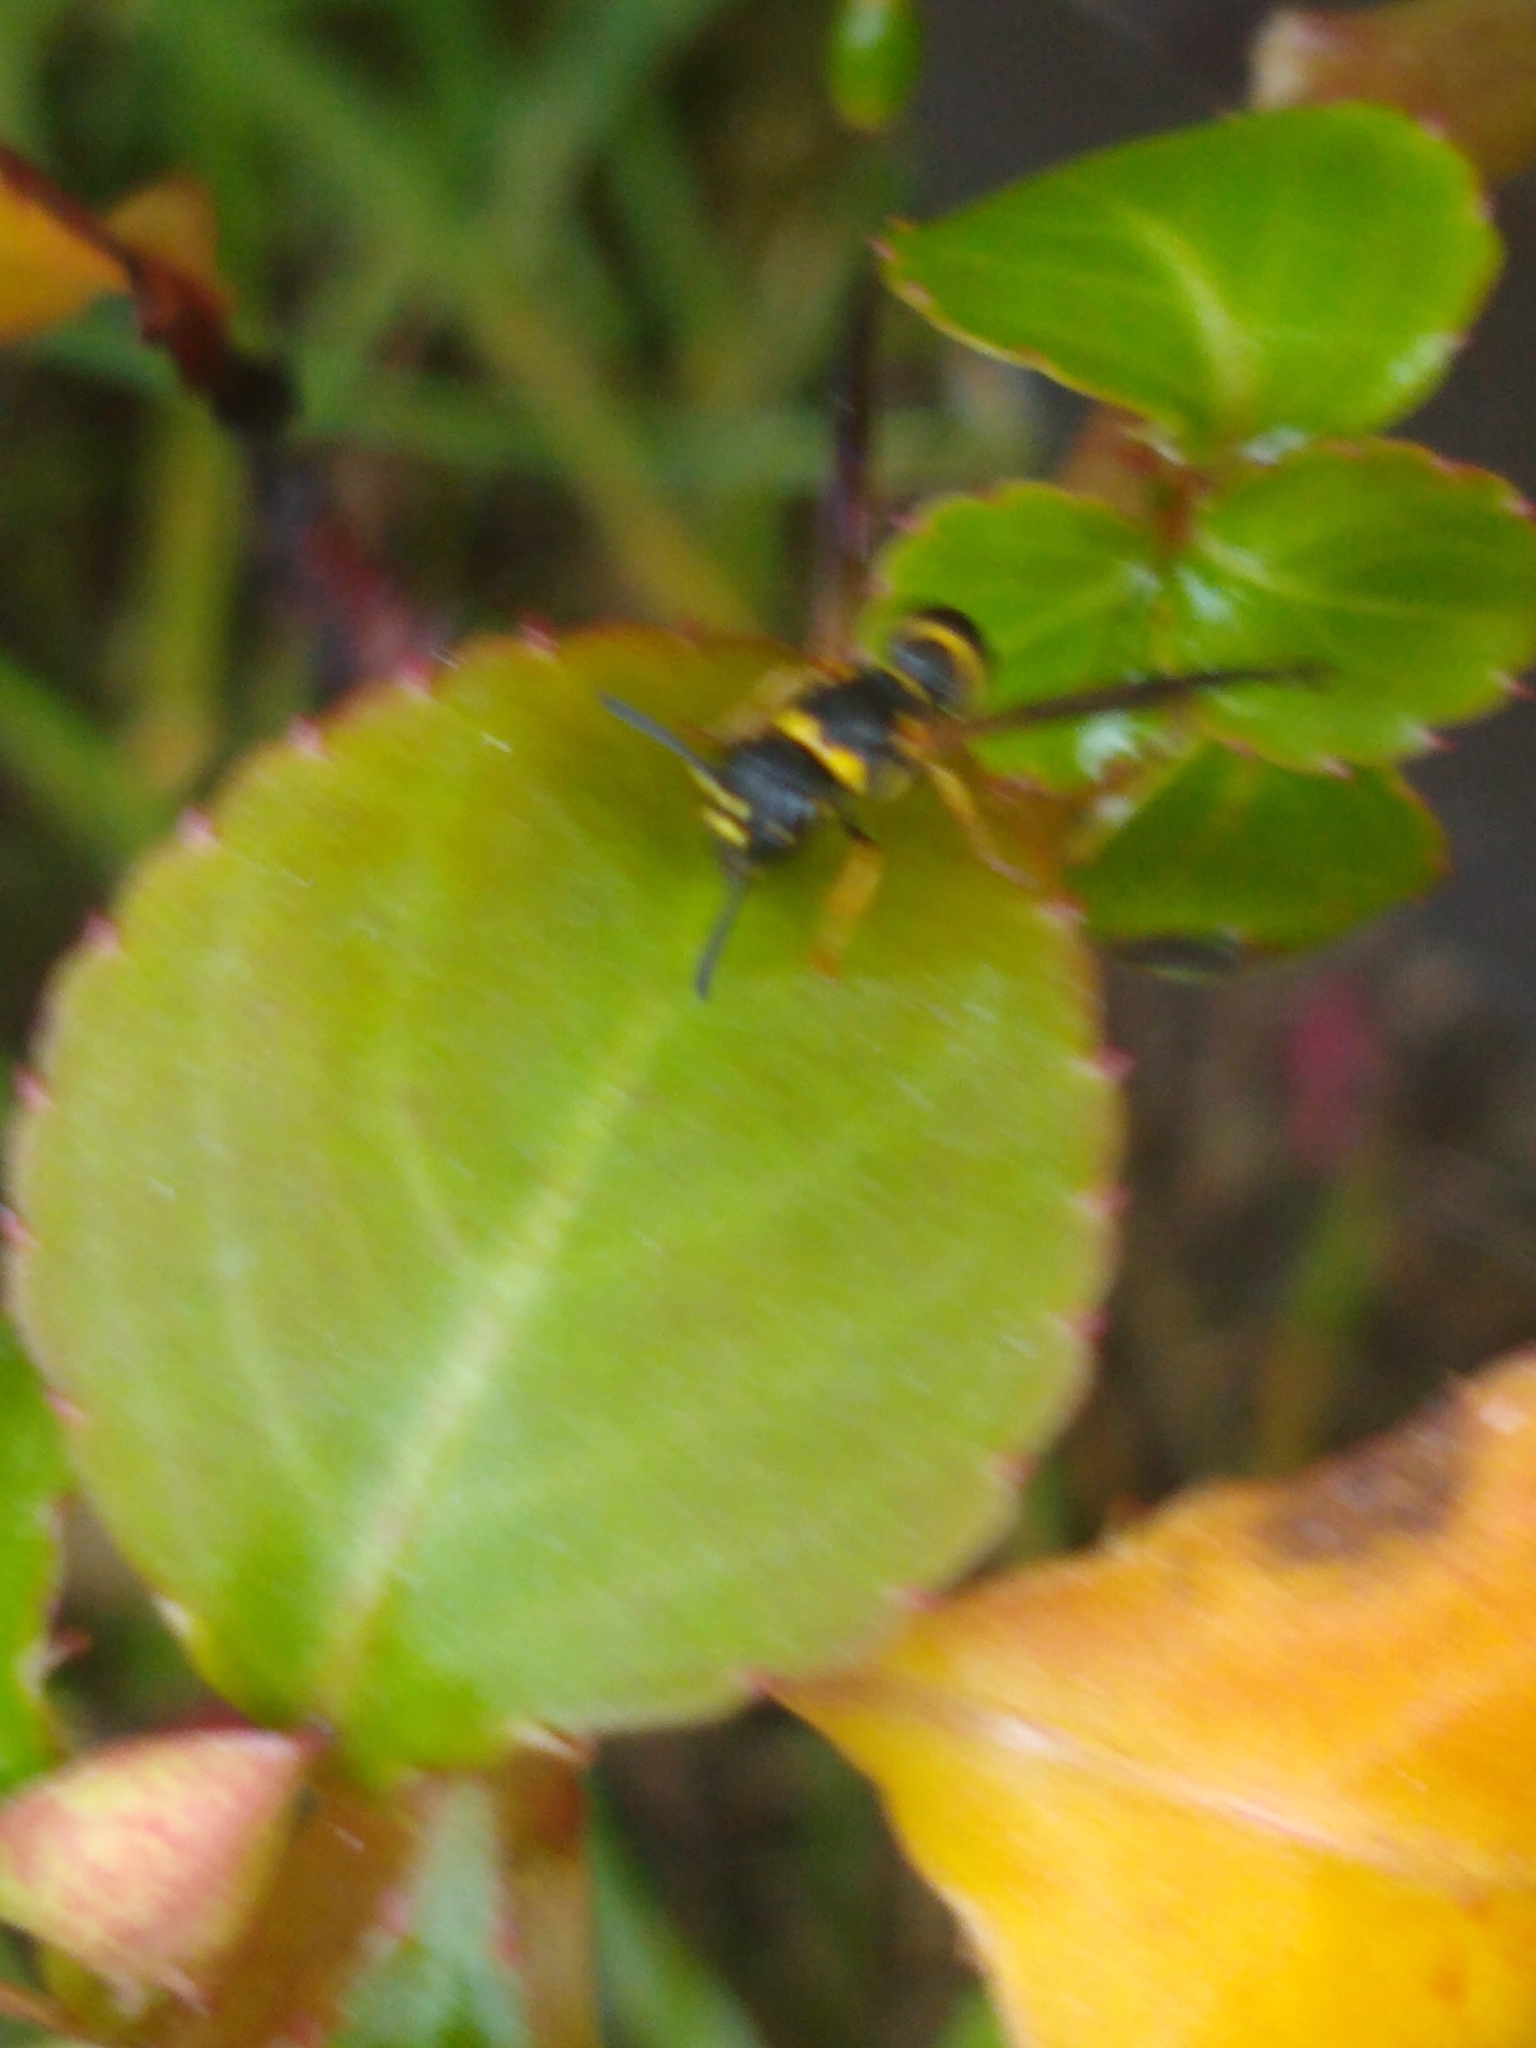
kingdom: Animalia
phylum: Arthropoda
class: Insecta
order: Hymenoptera
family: Eumenidae
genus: Parancistrocerus
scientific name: Parancistrocerus
